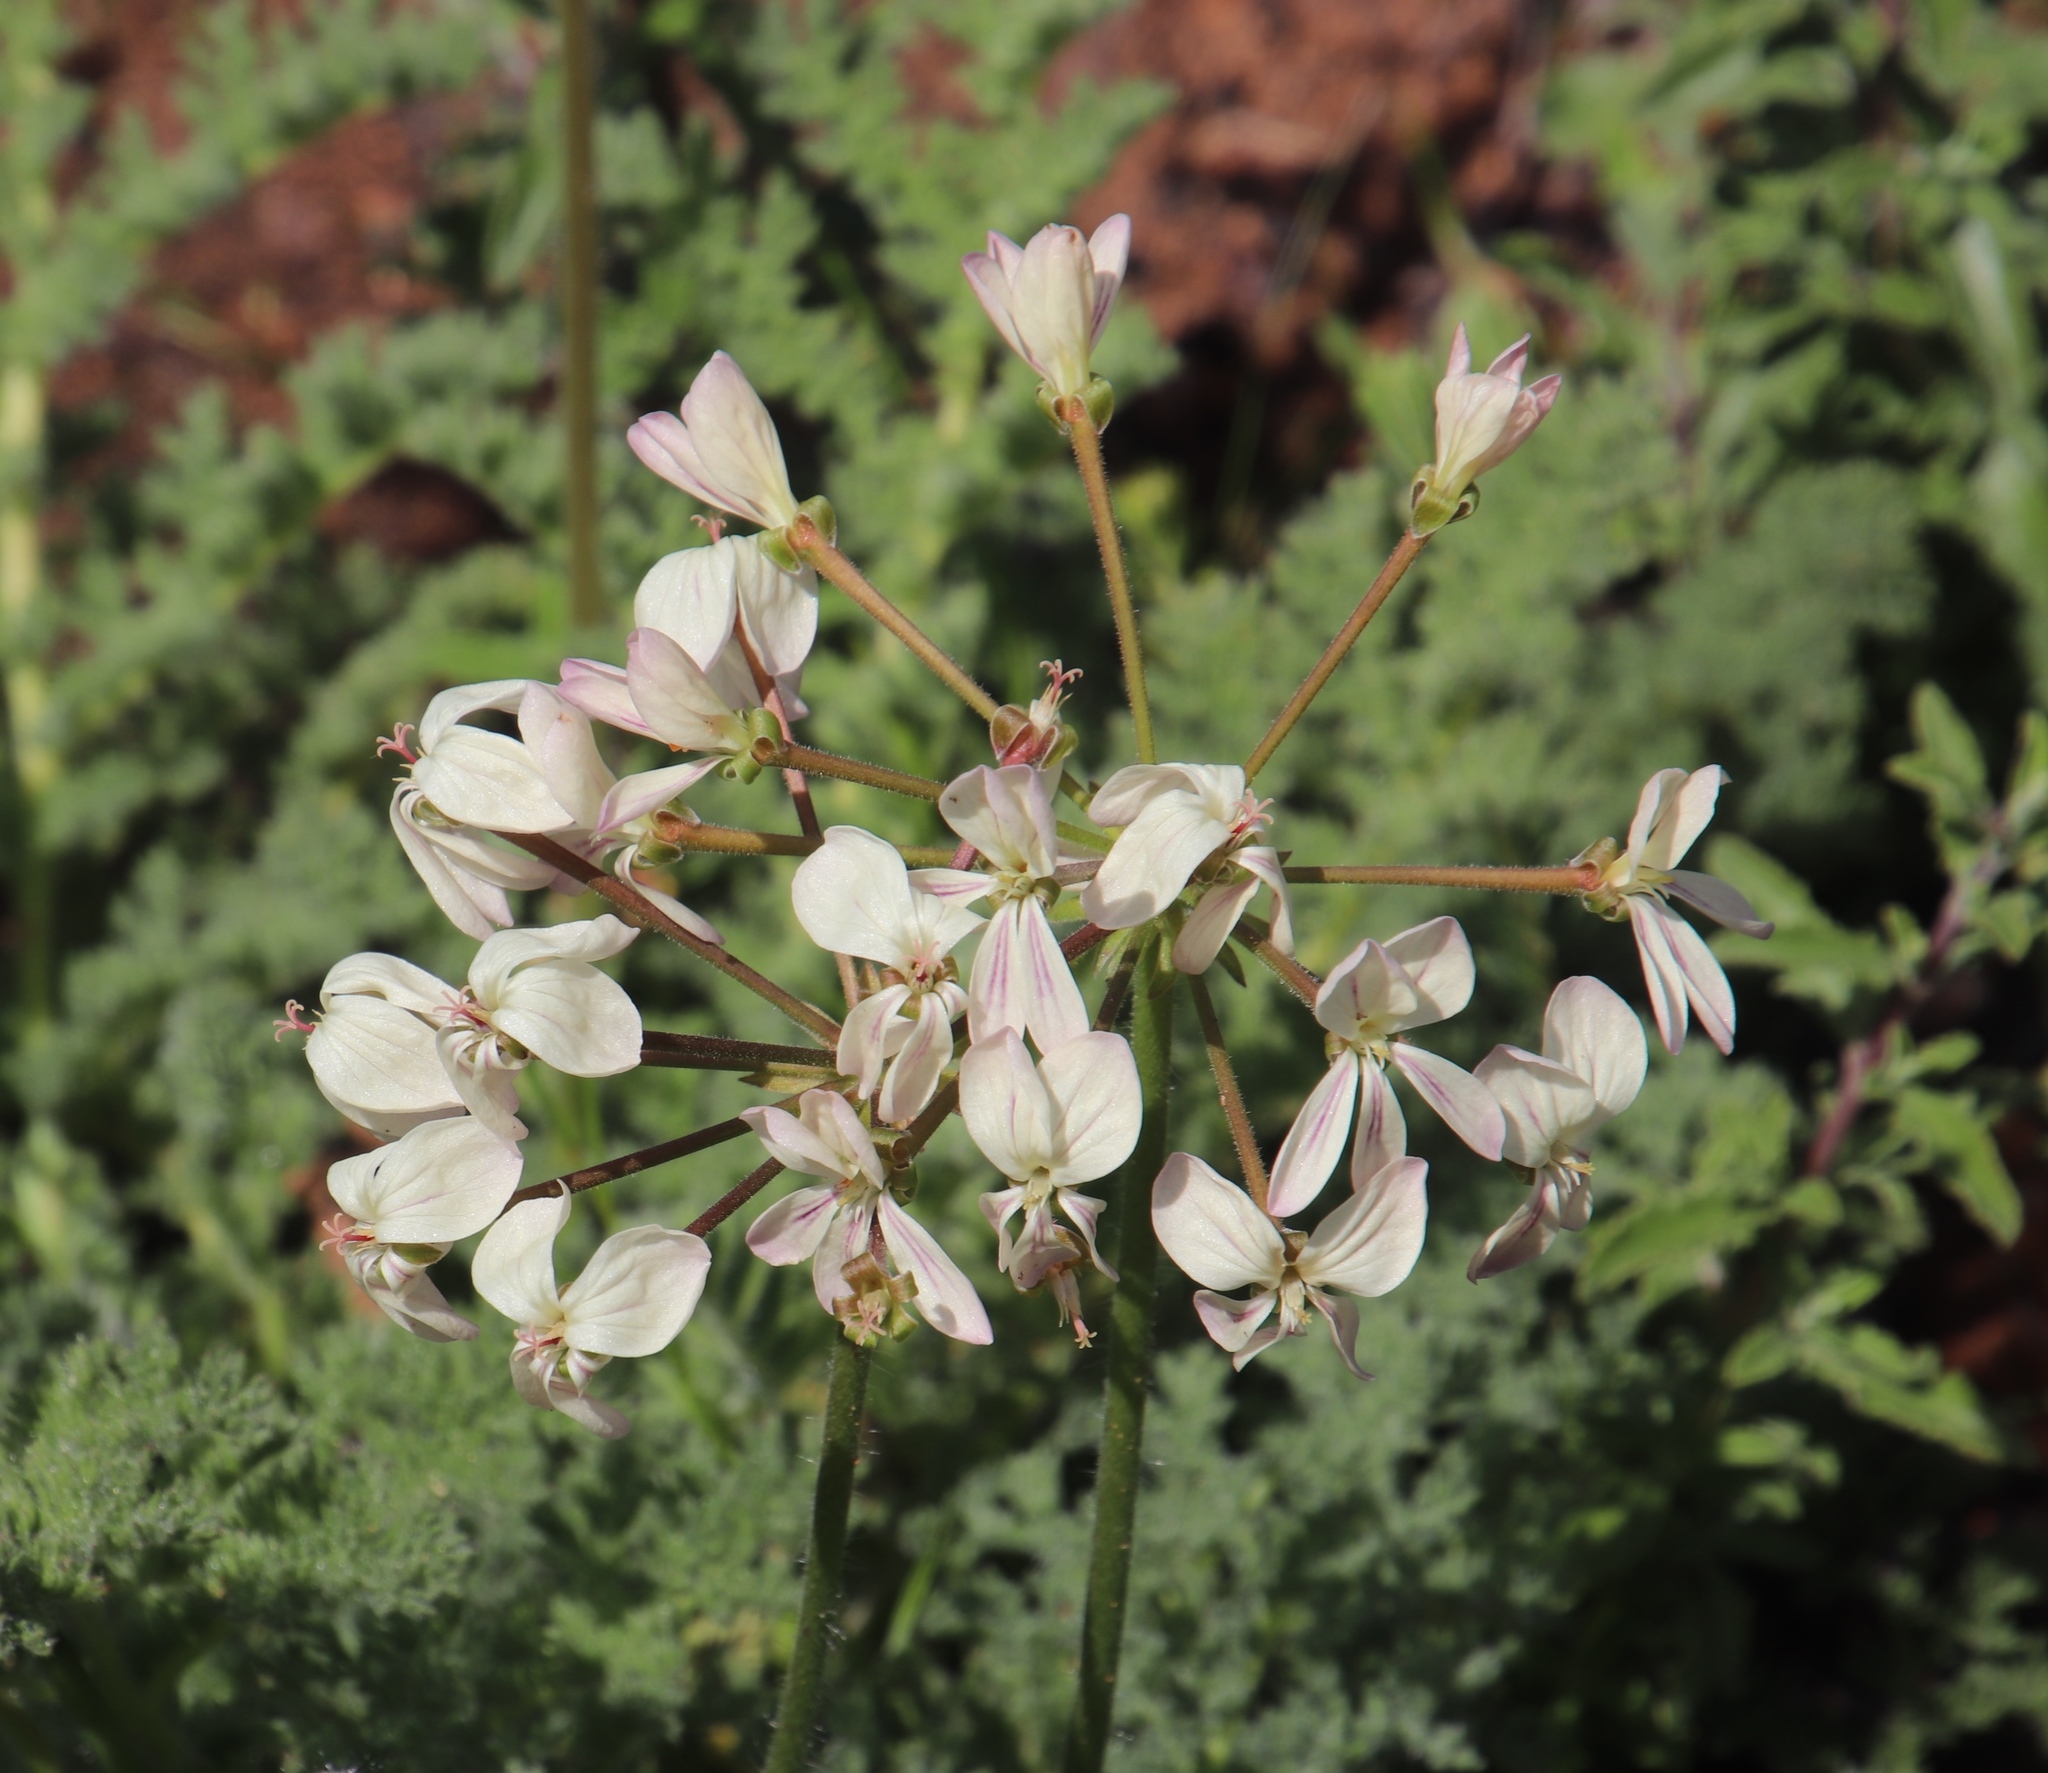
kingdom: Plantae
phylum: Tracheophyta
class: Magnoliopsida
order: Geraniales
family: Geraniaceae
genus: Pelargonium
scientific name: Pelargonium triste
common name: Night-scent pelargonium
